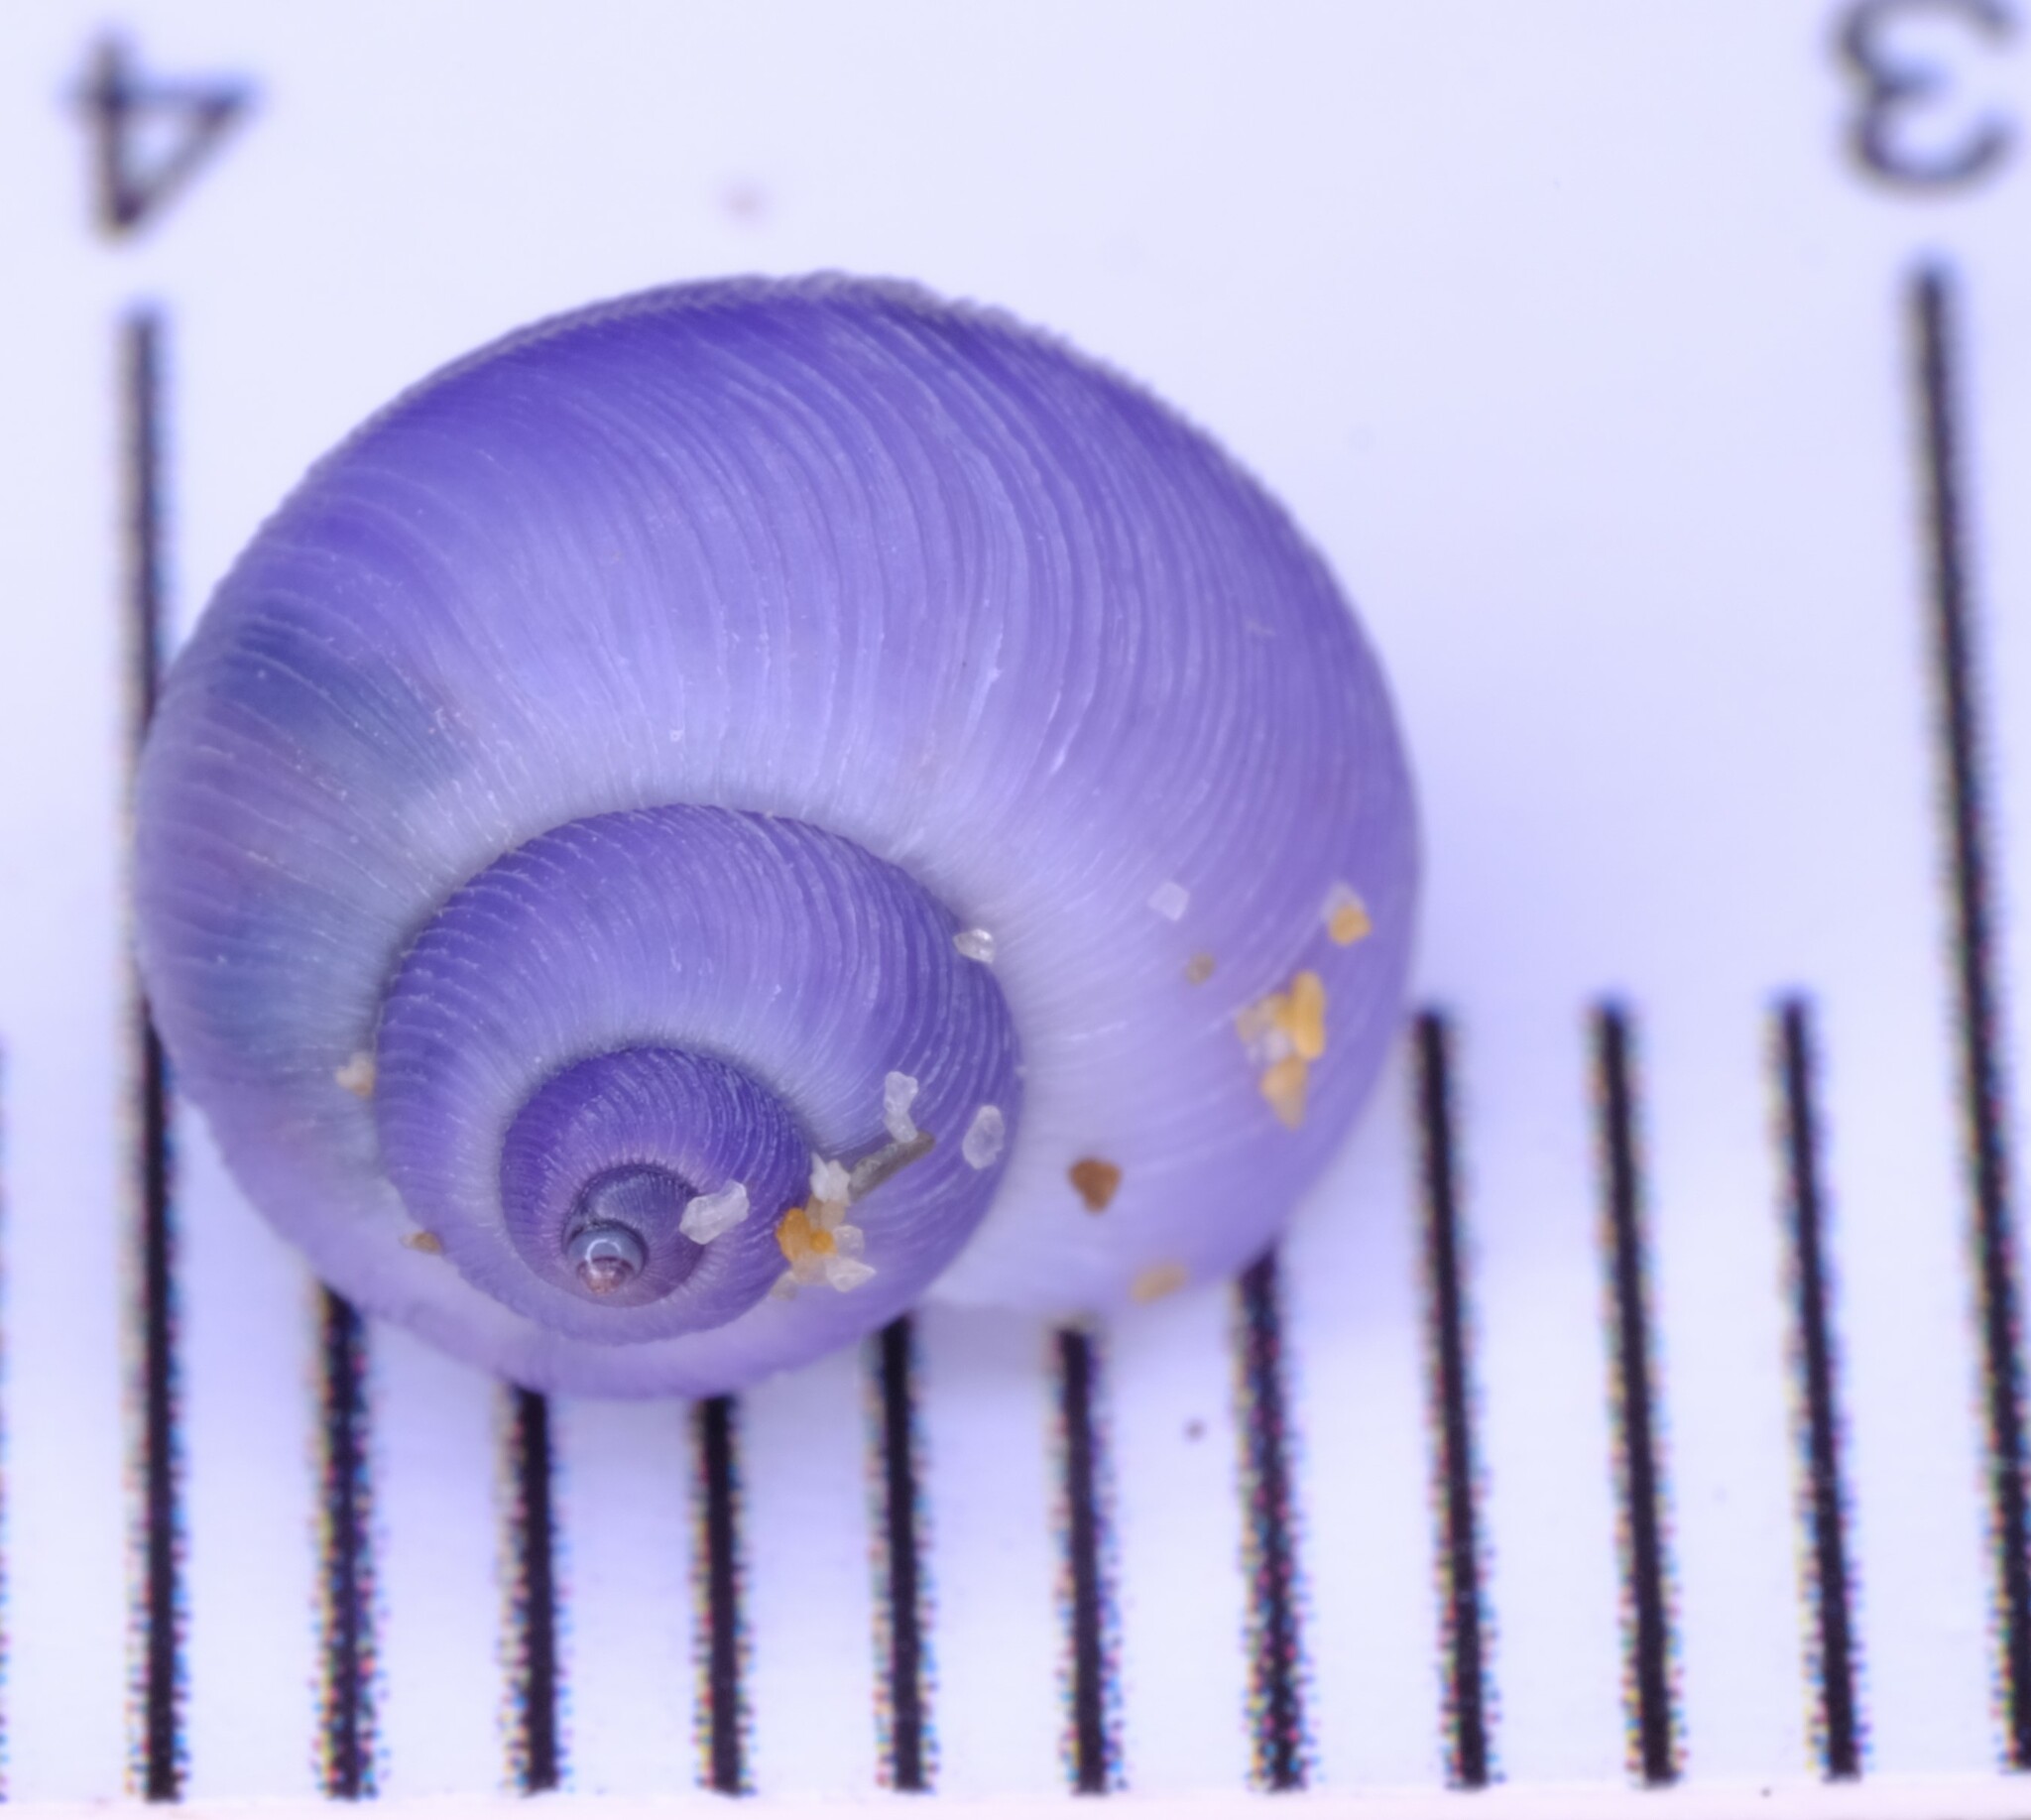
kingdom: Animalia
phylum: Mollusca
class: Gastropoda
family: Epitoniidae
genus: Janthina
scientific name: Janthina exigua
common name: Dwarf janthina
